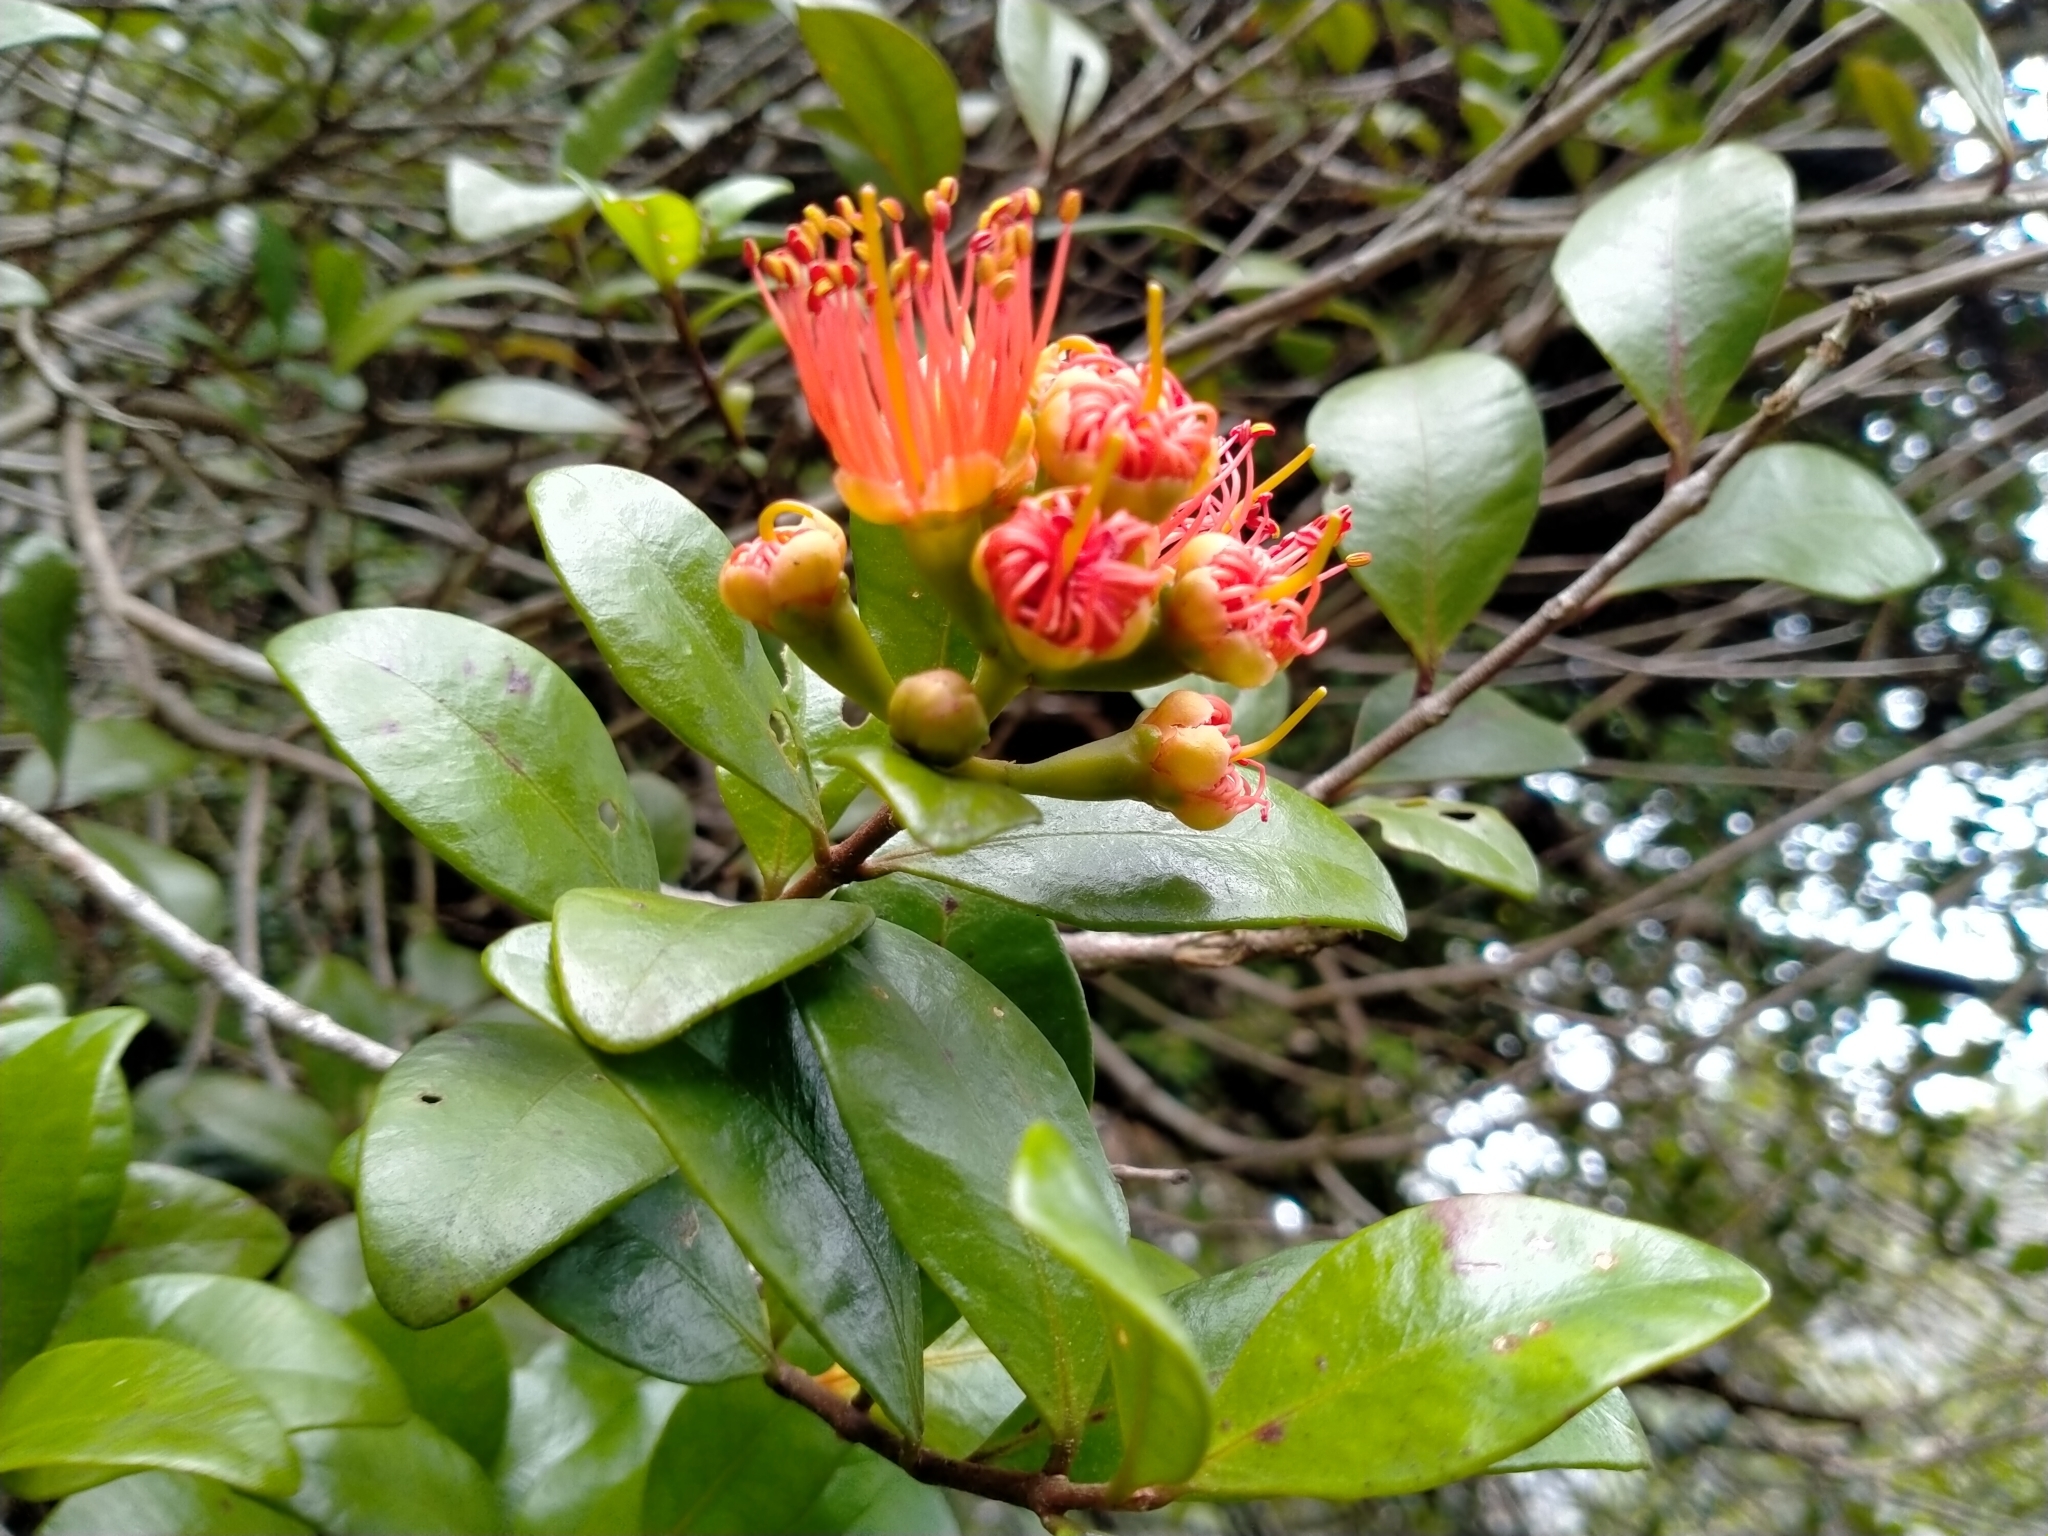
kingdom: Plantae
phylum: Tracheophyta
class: Magnoliopsida
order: Myrtales
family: Myrtaceae
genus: Metrosideros
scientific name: Metrosideros fulgens
